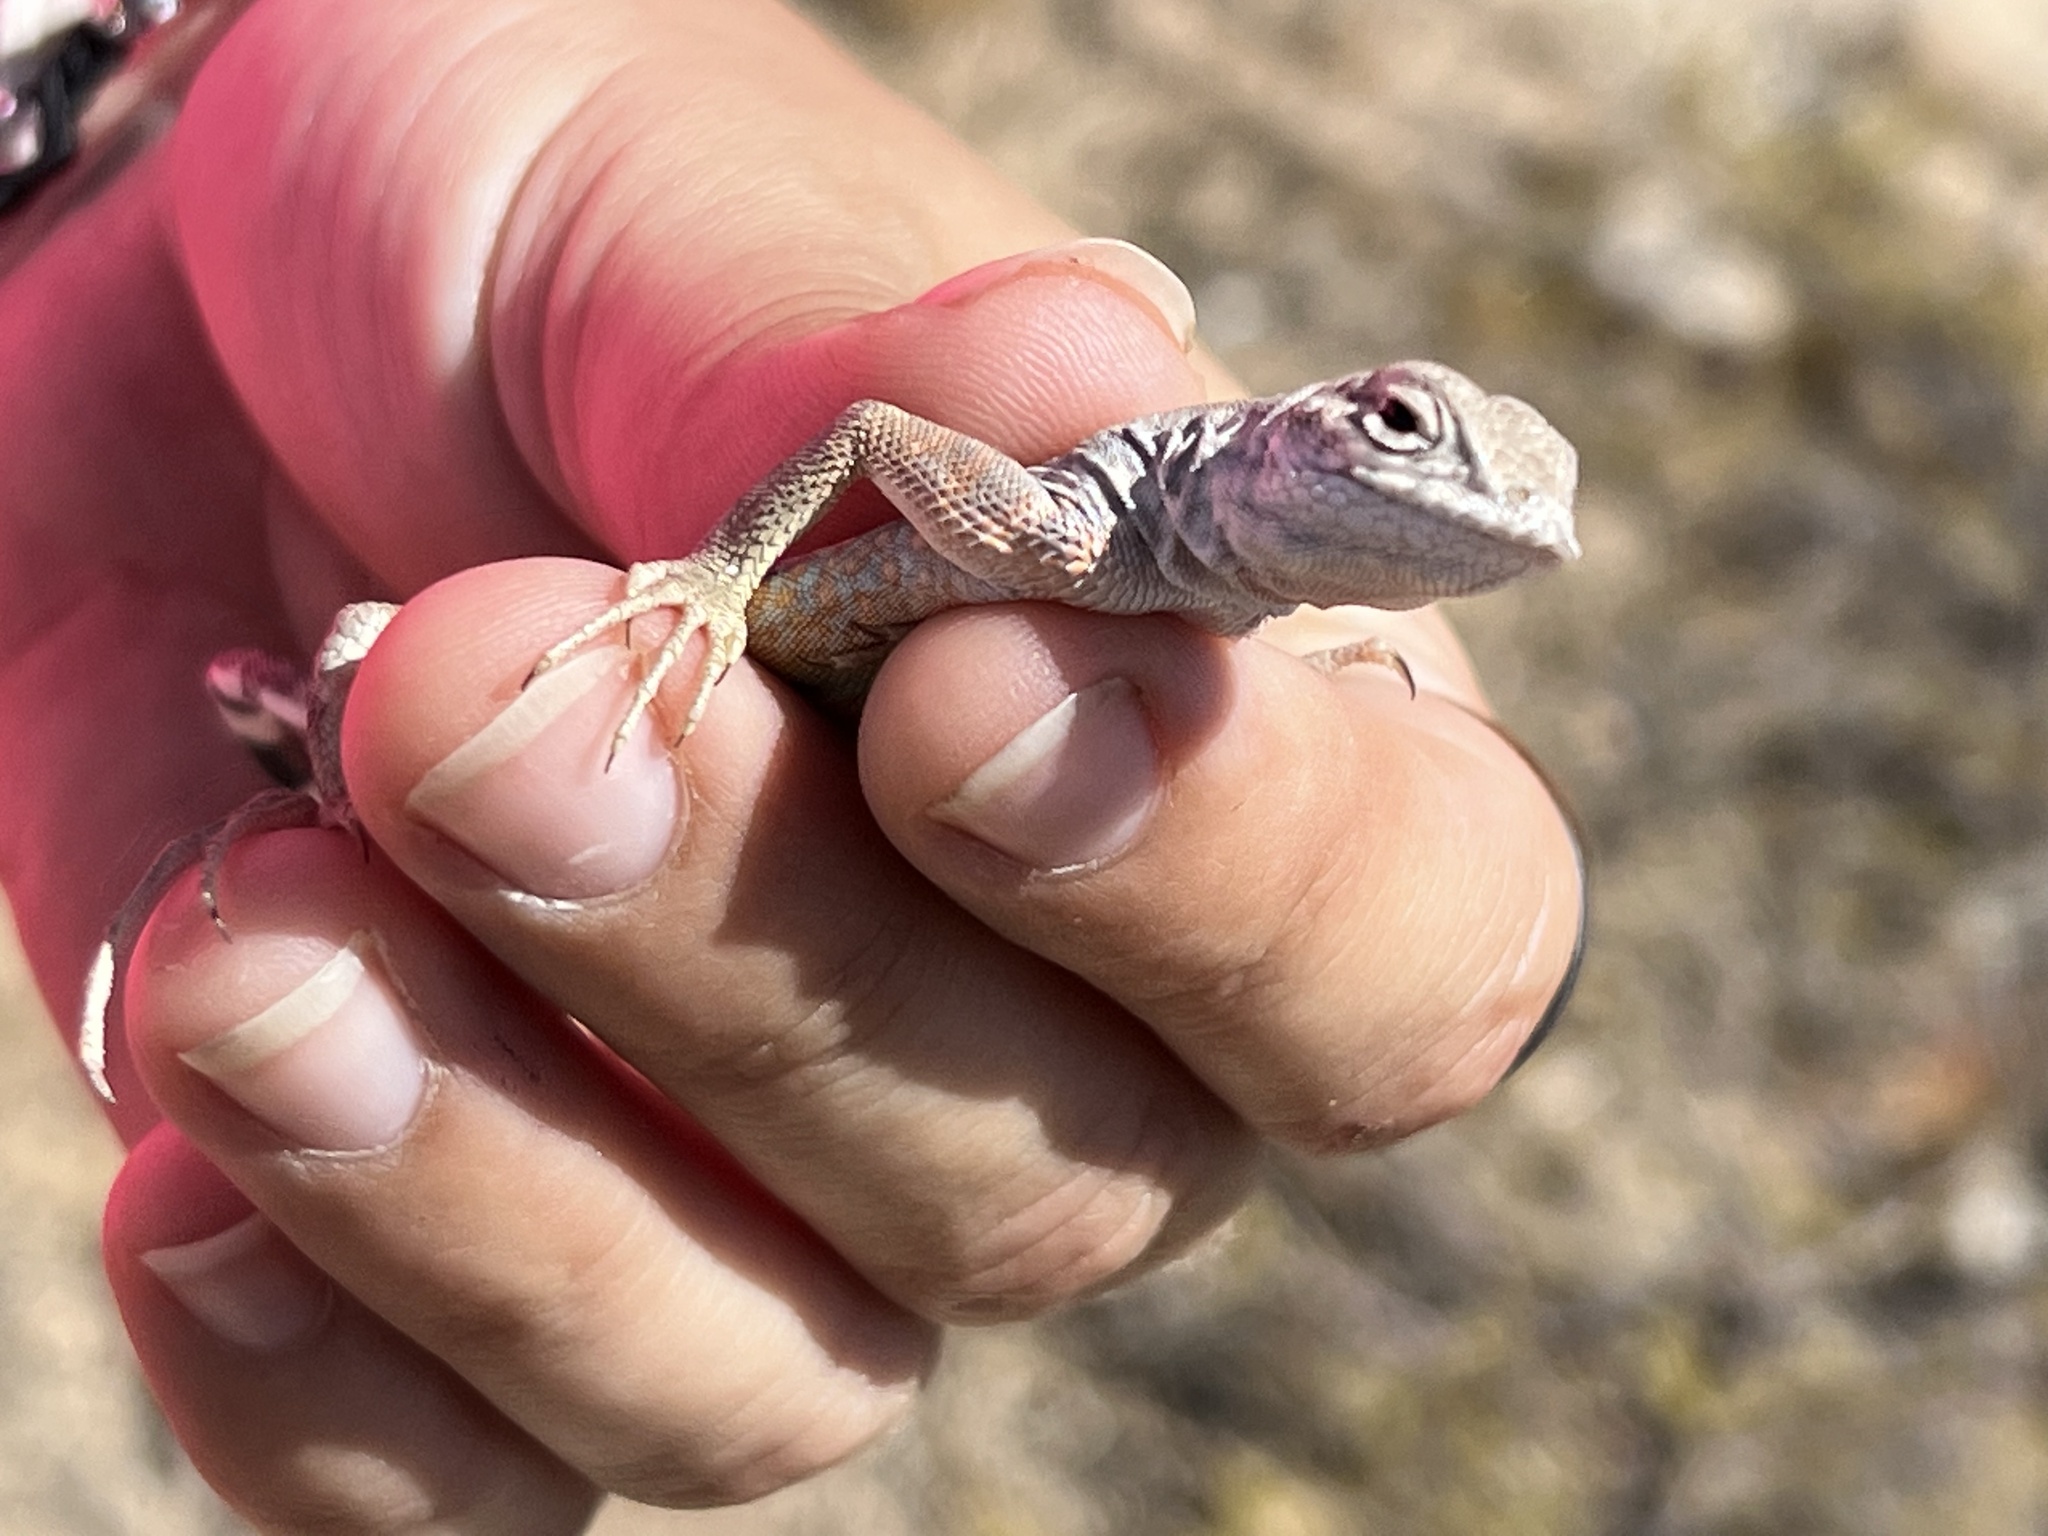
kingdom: Animalia
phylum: Chordata
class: Squamata
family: Phrynosomatidae
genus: Cophosaurus
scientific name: Cophosaurus texanus
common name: Greater earless lizard
